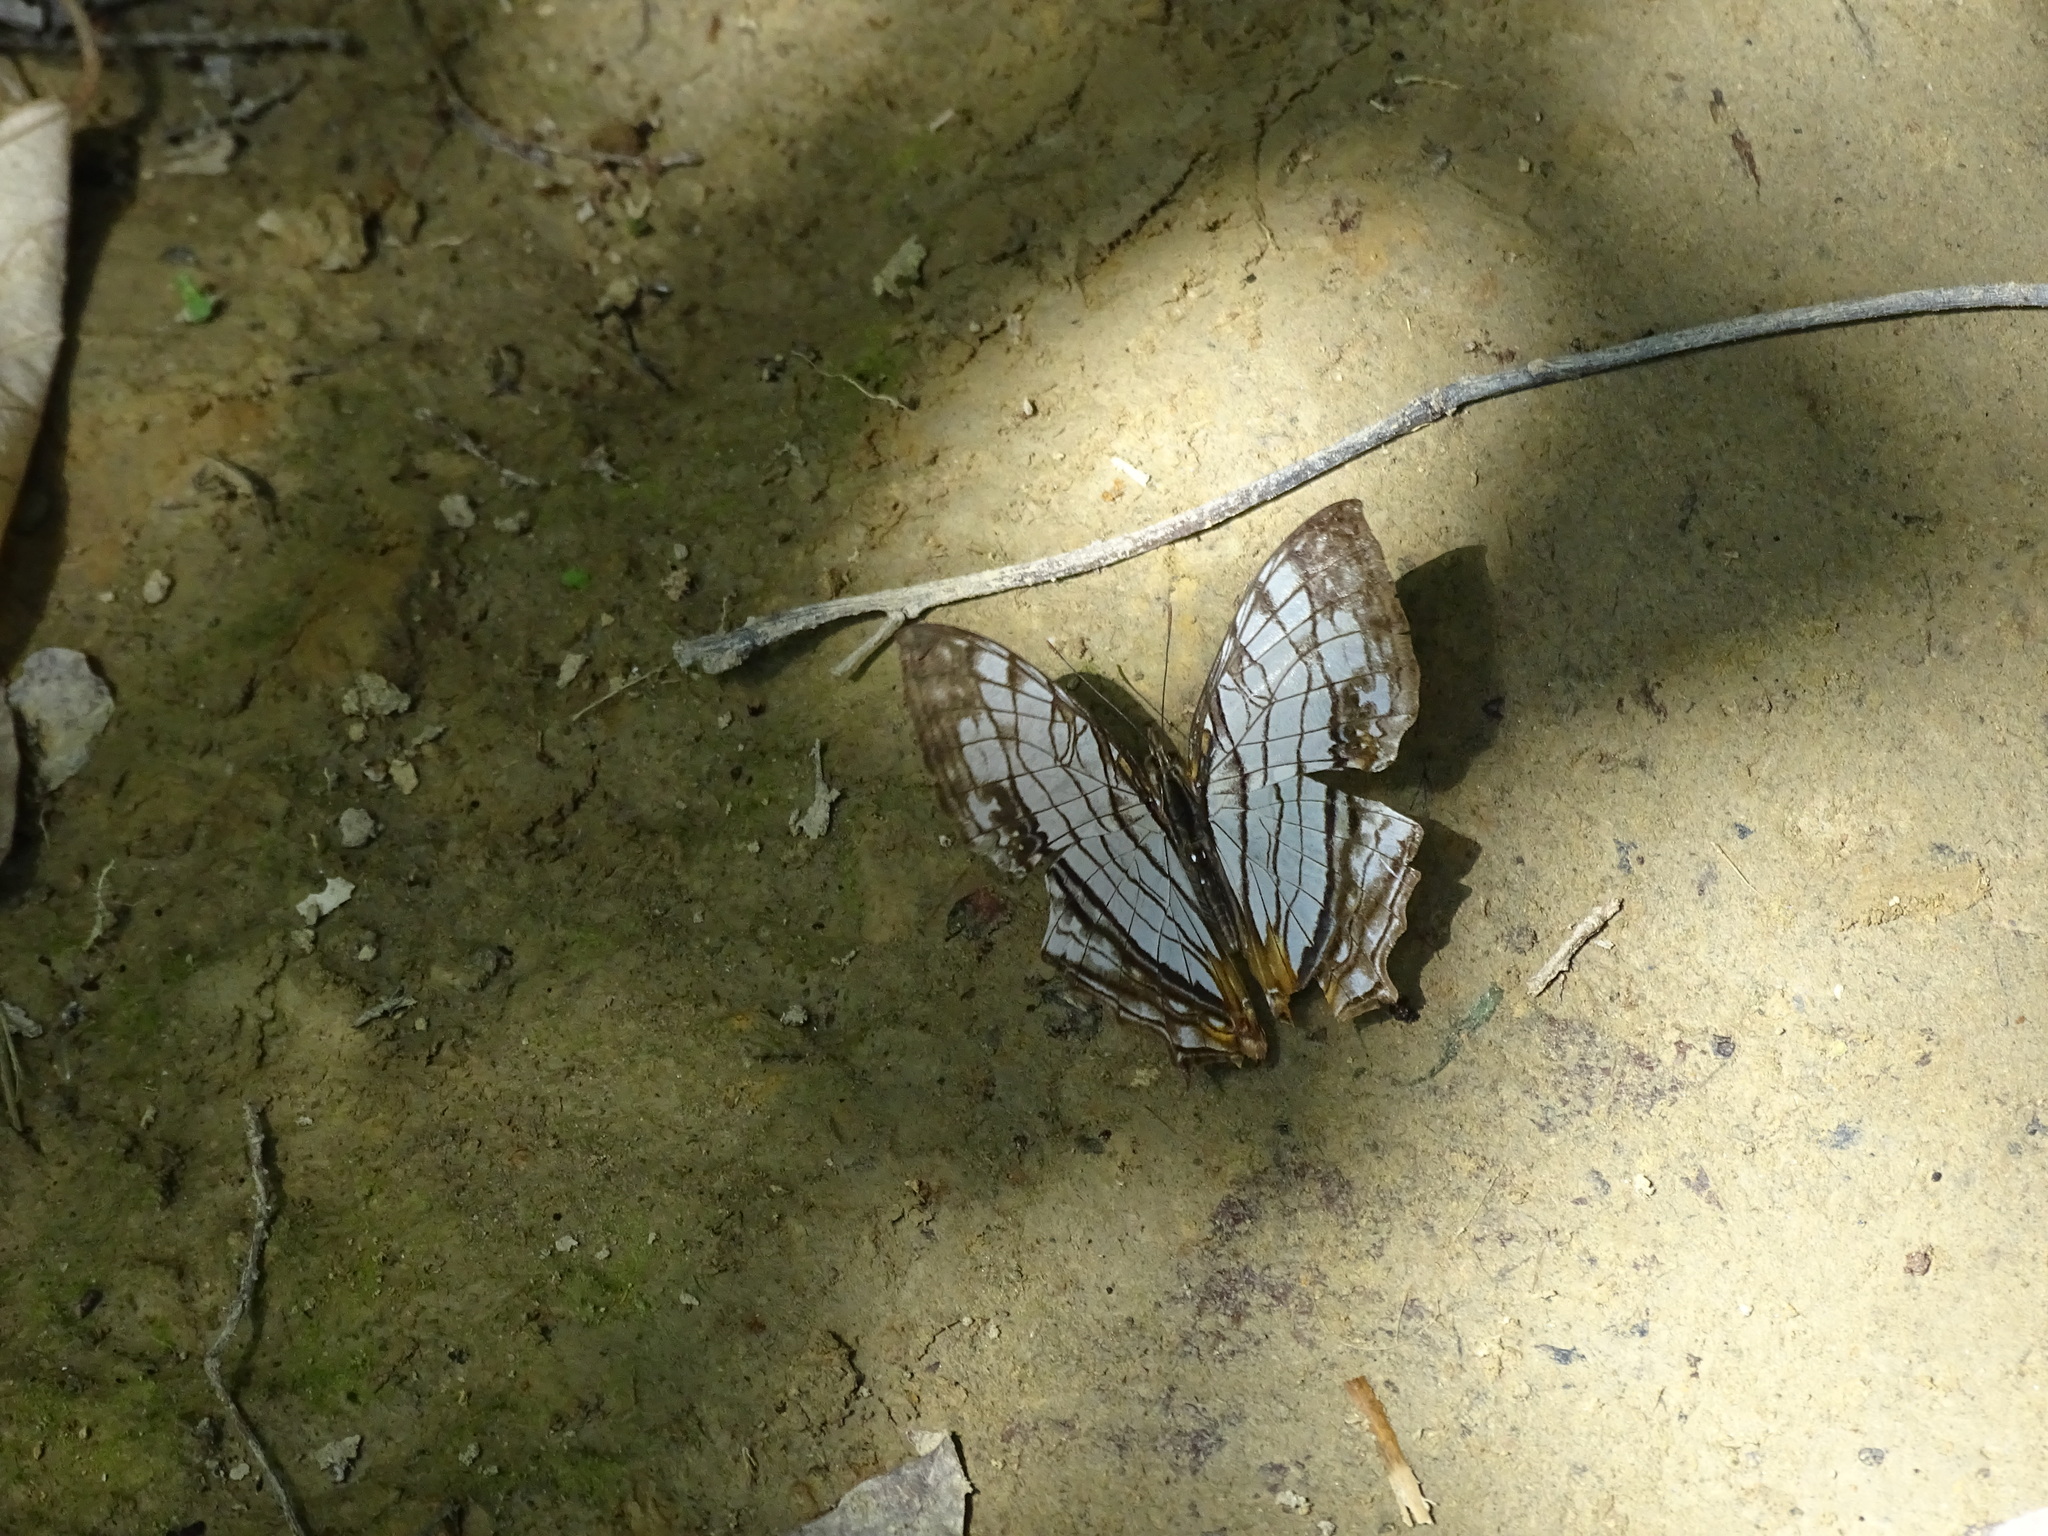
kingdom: Animalia
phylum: Arthropoda
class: Insecta
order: Lepidoptera
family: Nymphalidae
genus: Cyrestis
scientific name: Cyrestis thyodamas
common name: Common mapwing
